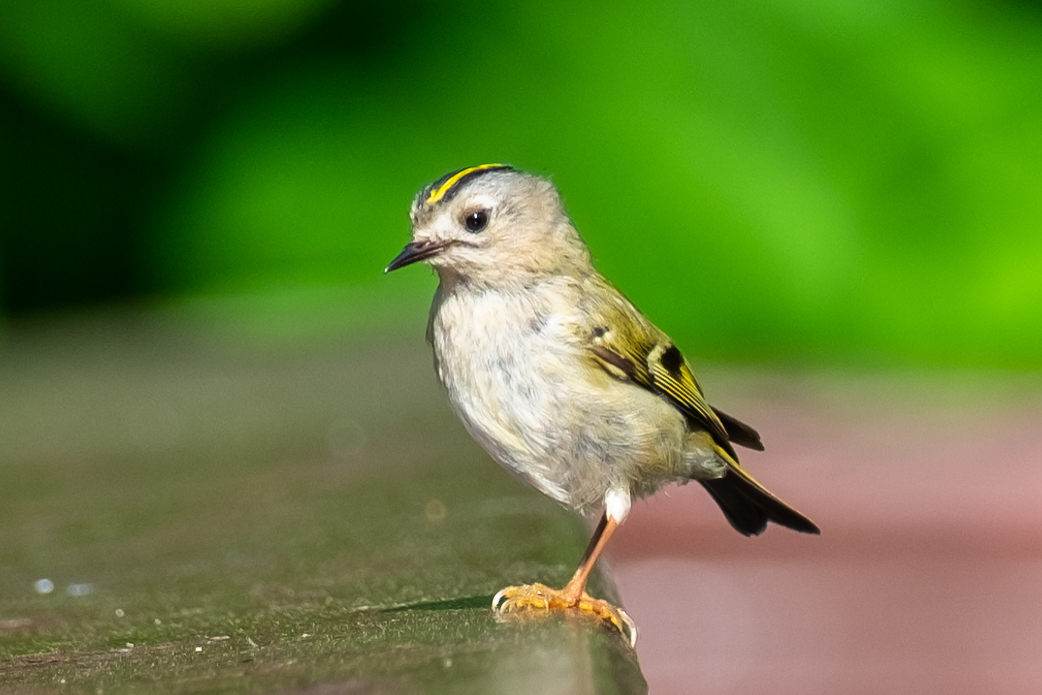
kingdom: Animalia
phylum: Chordata
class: Aves
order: Passeriformes
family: Regulidae
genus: Regulus
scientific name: Regulus regulus
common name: Goldcrest
